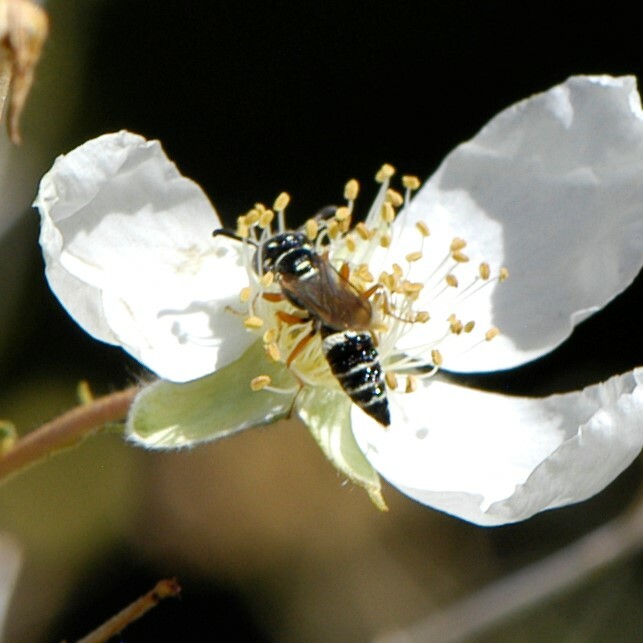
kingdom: Animalia
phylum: Arthropoda
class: Insecta
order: Hymenoptera
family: Crabronidae
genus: Philanthus
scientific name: Philanthus gibbosus
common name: Humped beewolf
